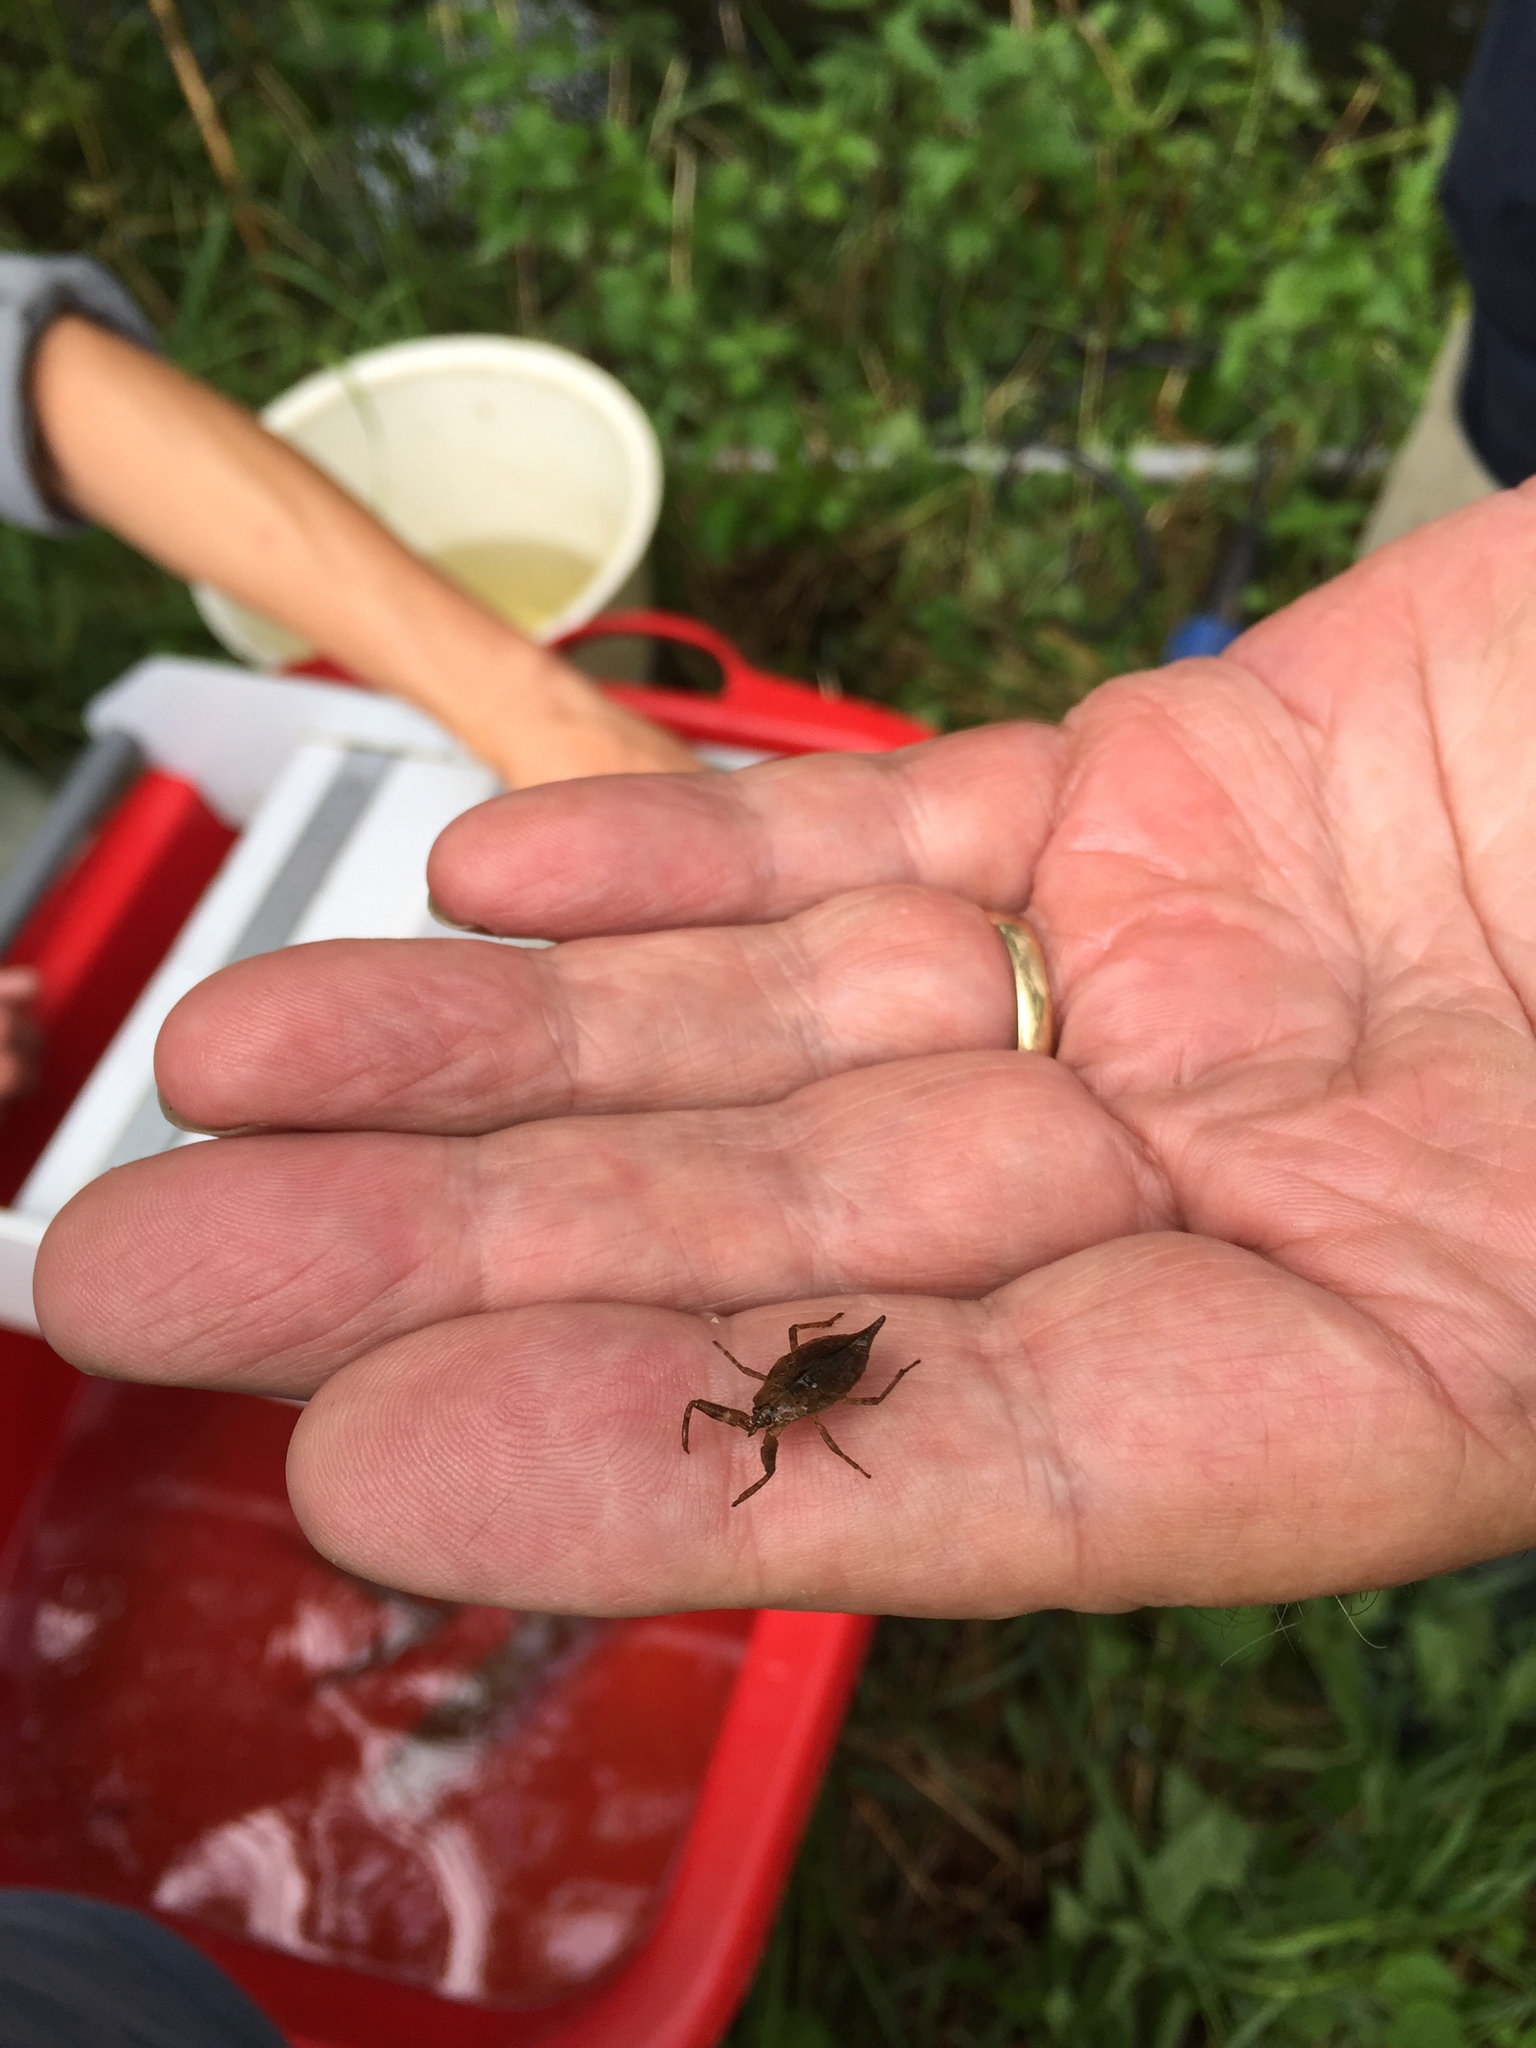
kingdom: Animalia
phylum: Arthropoda
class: Insecta
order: Hemiptera
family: Nepidae
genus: Nepa
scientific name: Nepa cinerea
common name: Water scorpion
